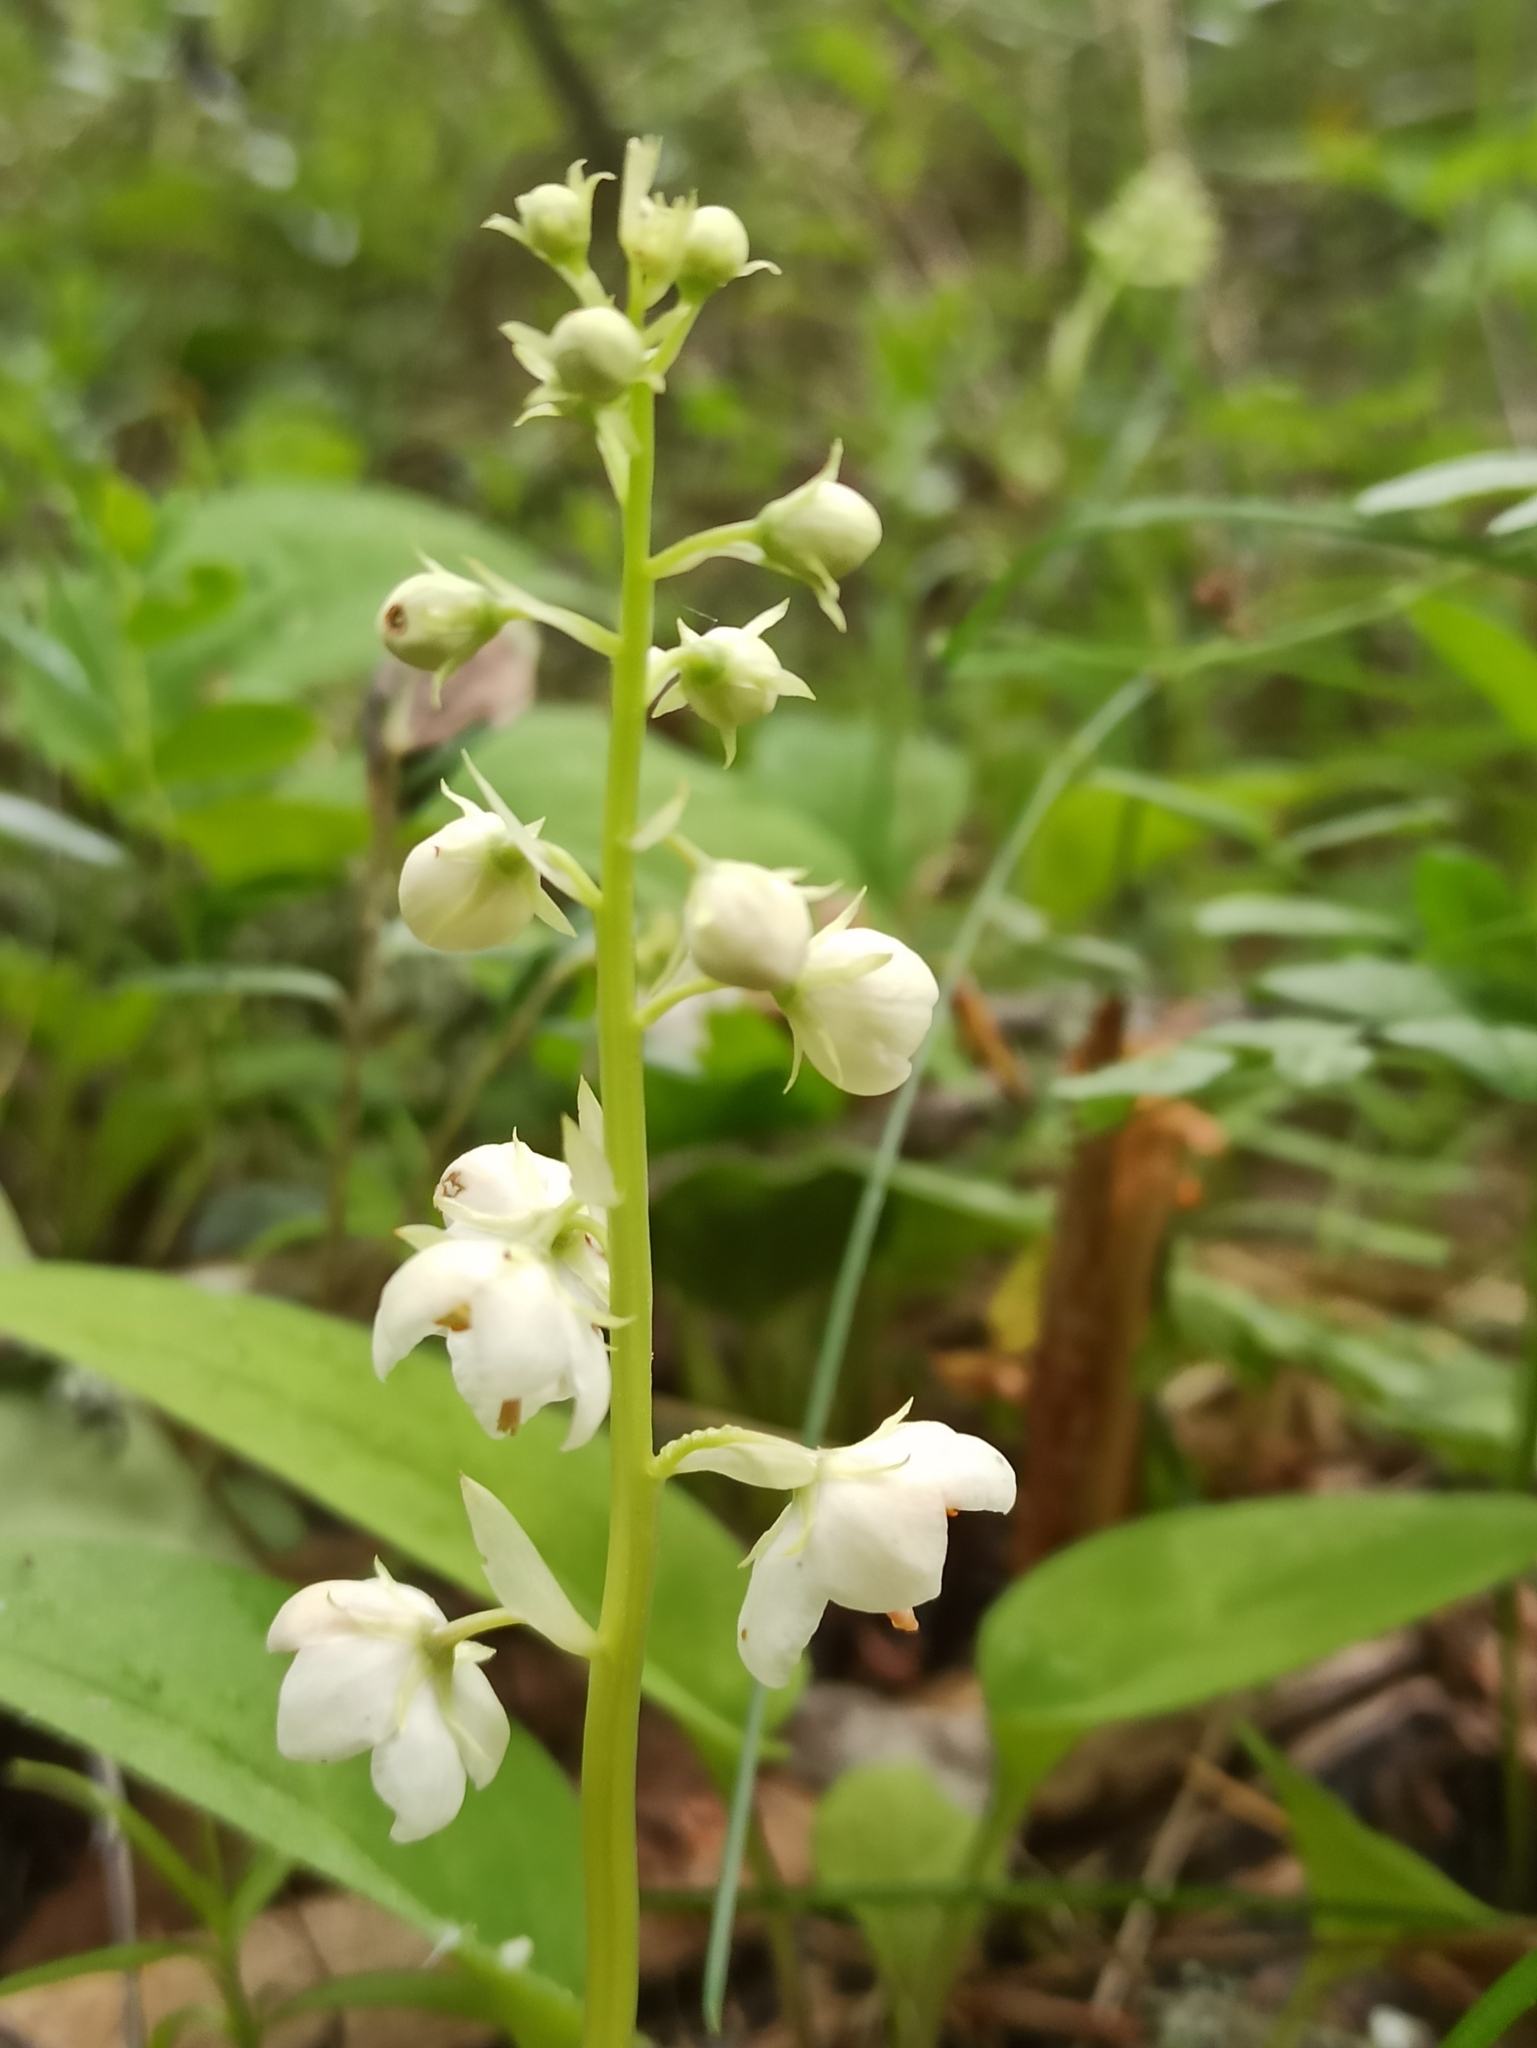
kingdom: Plantae
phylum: Tracheophyta
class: Magnoliopsida
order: Ericales
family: Ericaceae
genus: Pyrola
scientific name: Pyrola rotundifolia
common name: Round-leaved wintergreen
